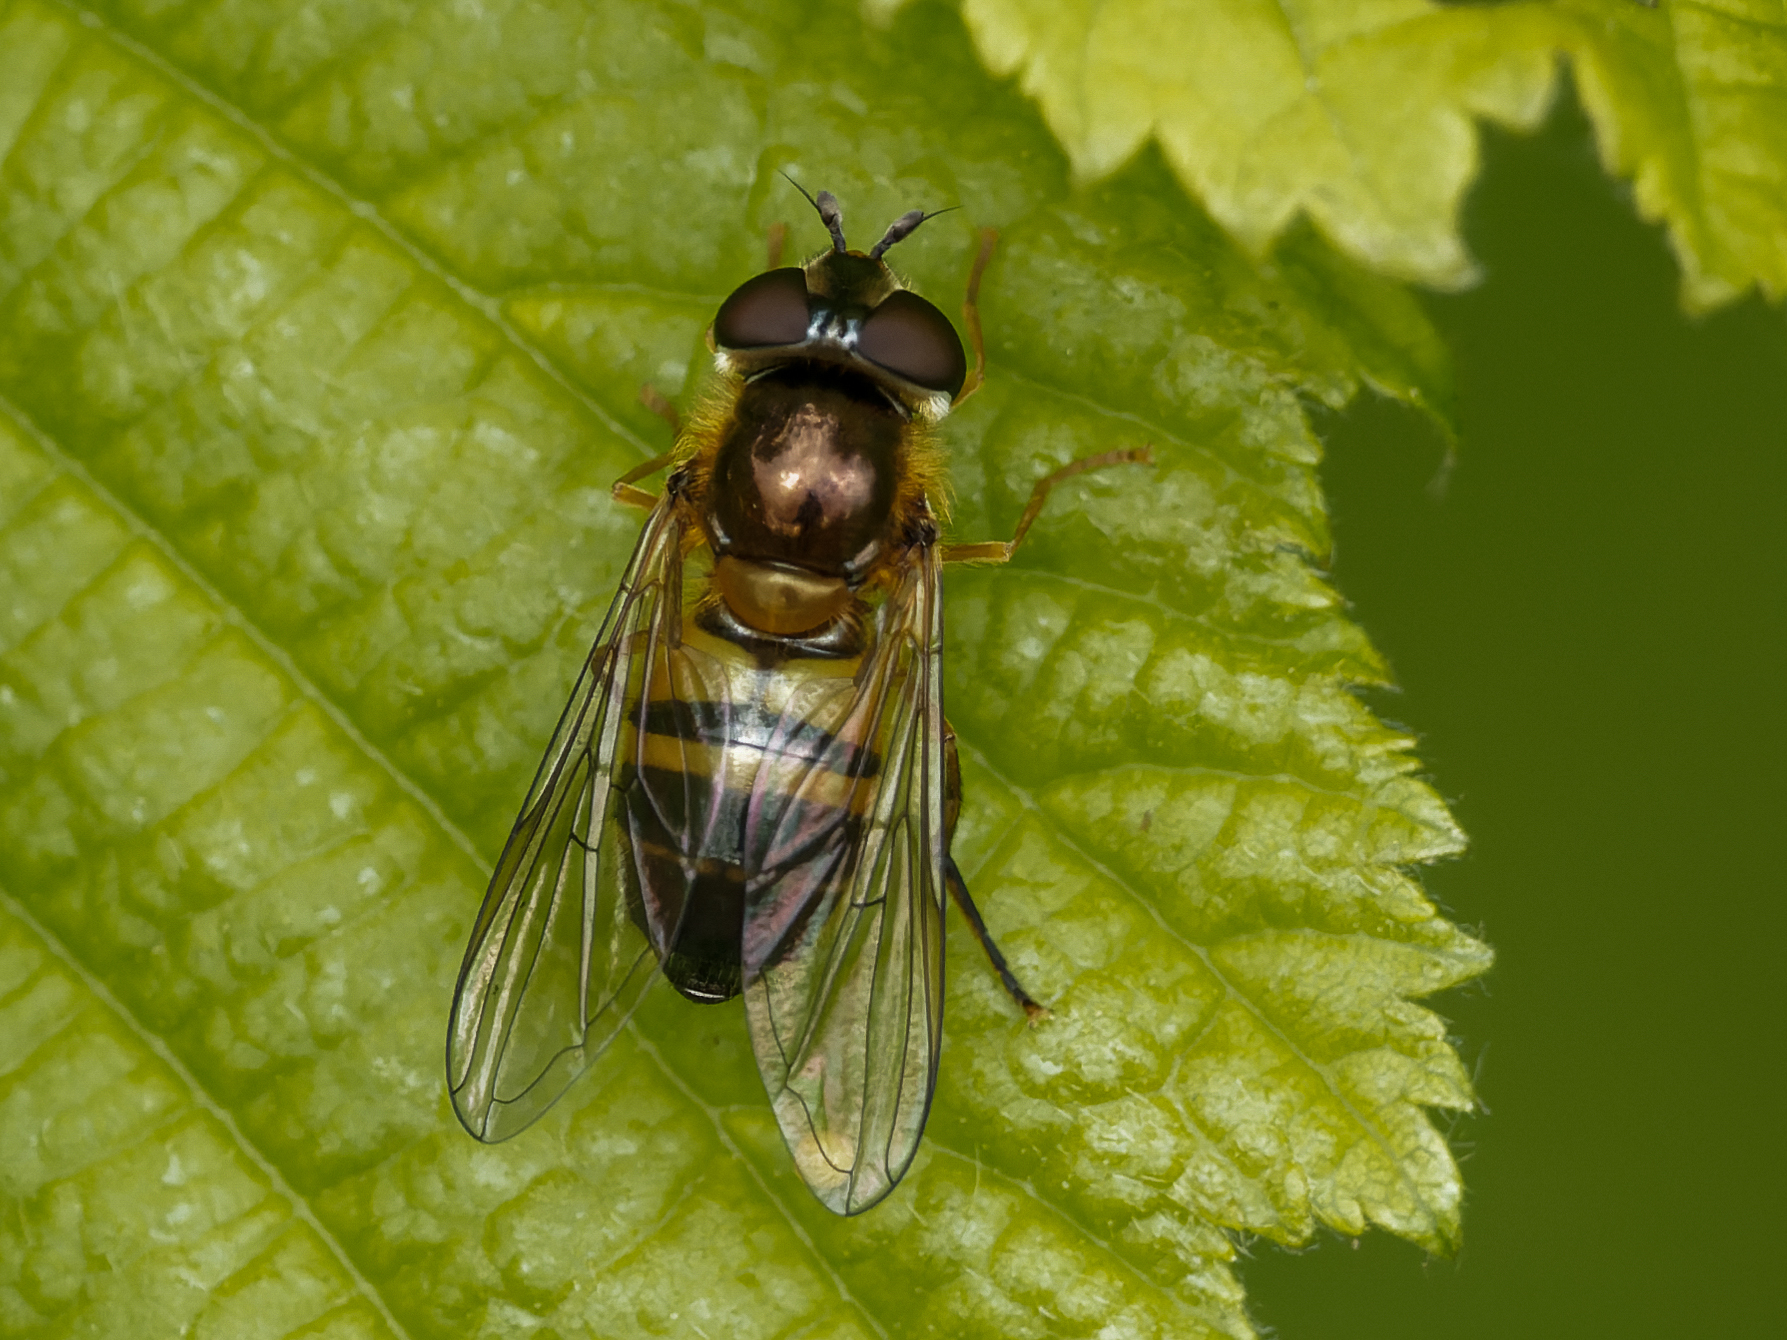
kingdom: Animalia
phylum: Arthropoda
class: Insecta
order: Diptera
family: Syrphidae
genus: Epistrophe
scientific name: Epistrophe eligans
